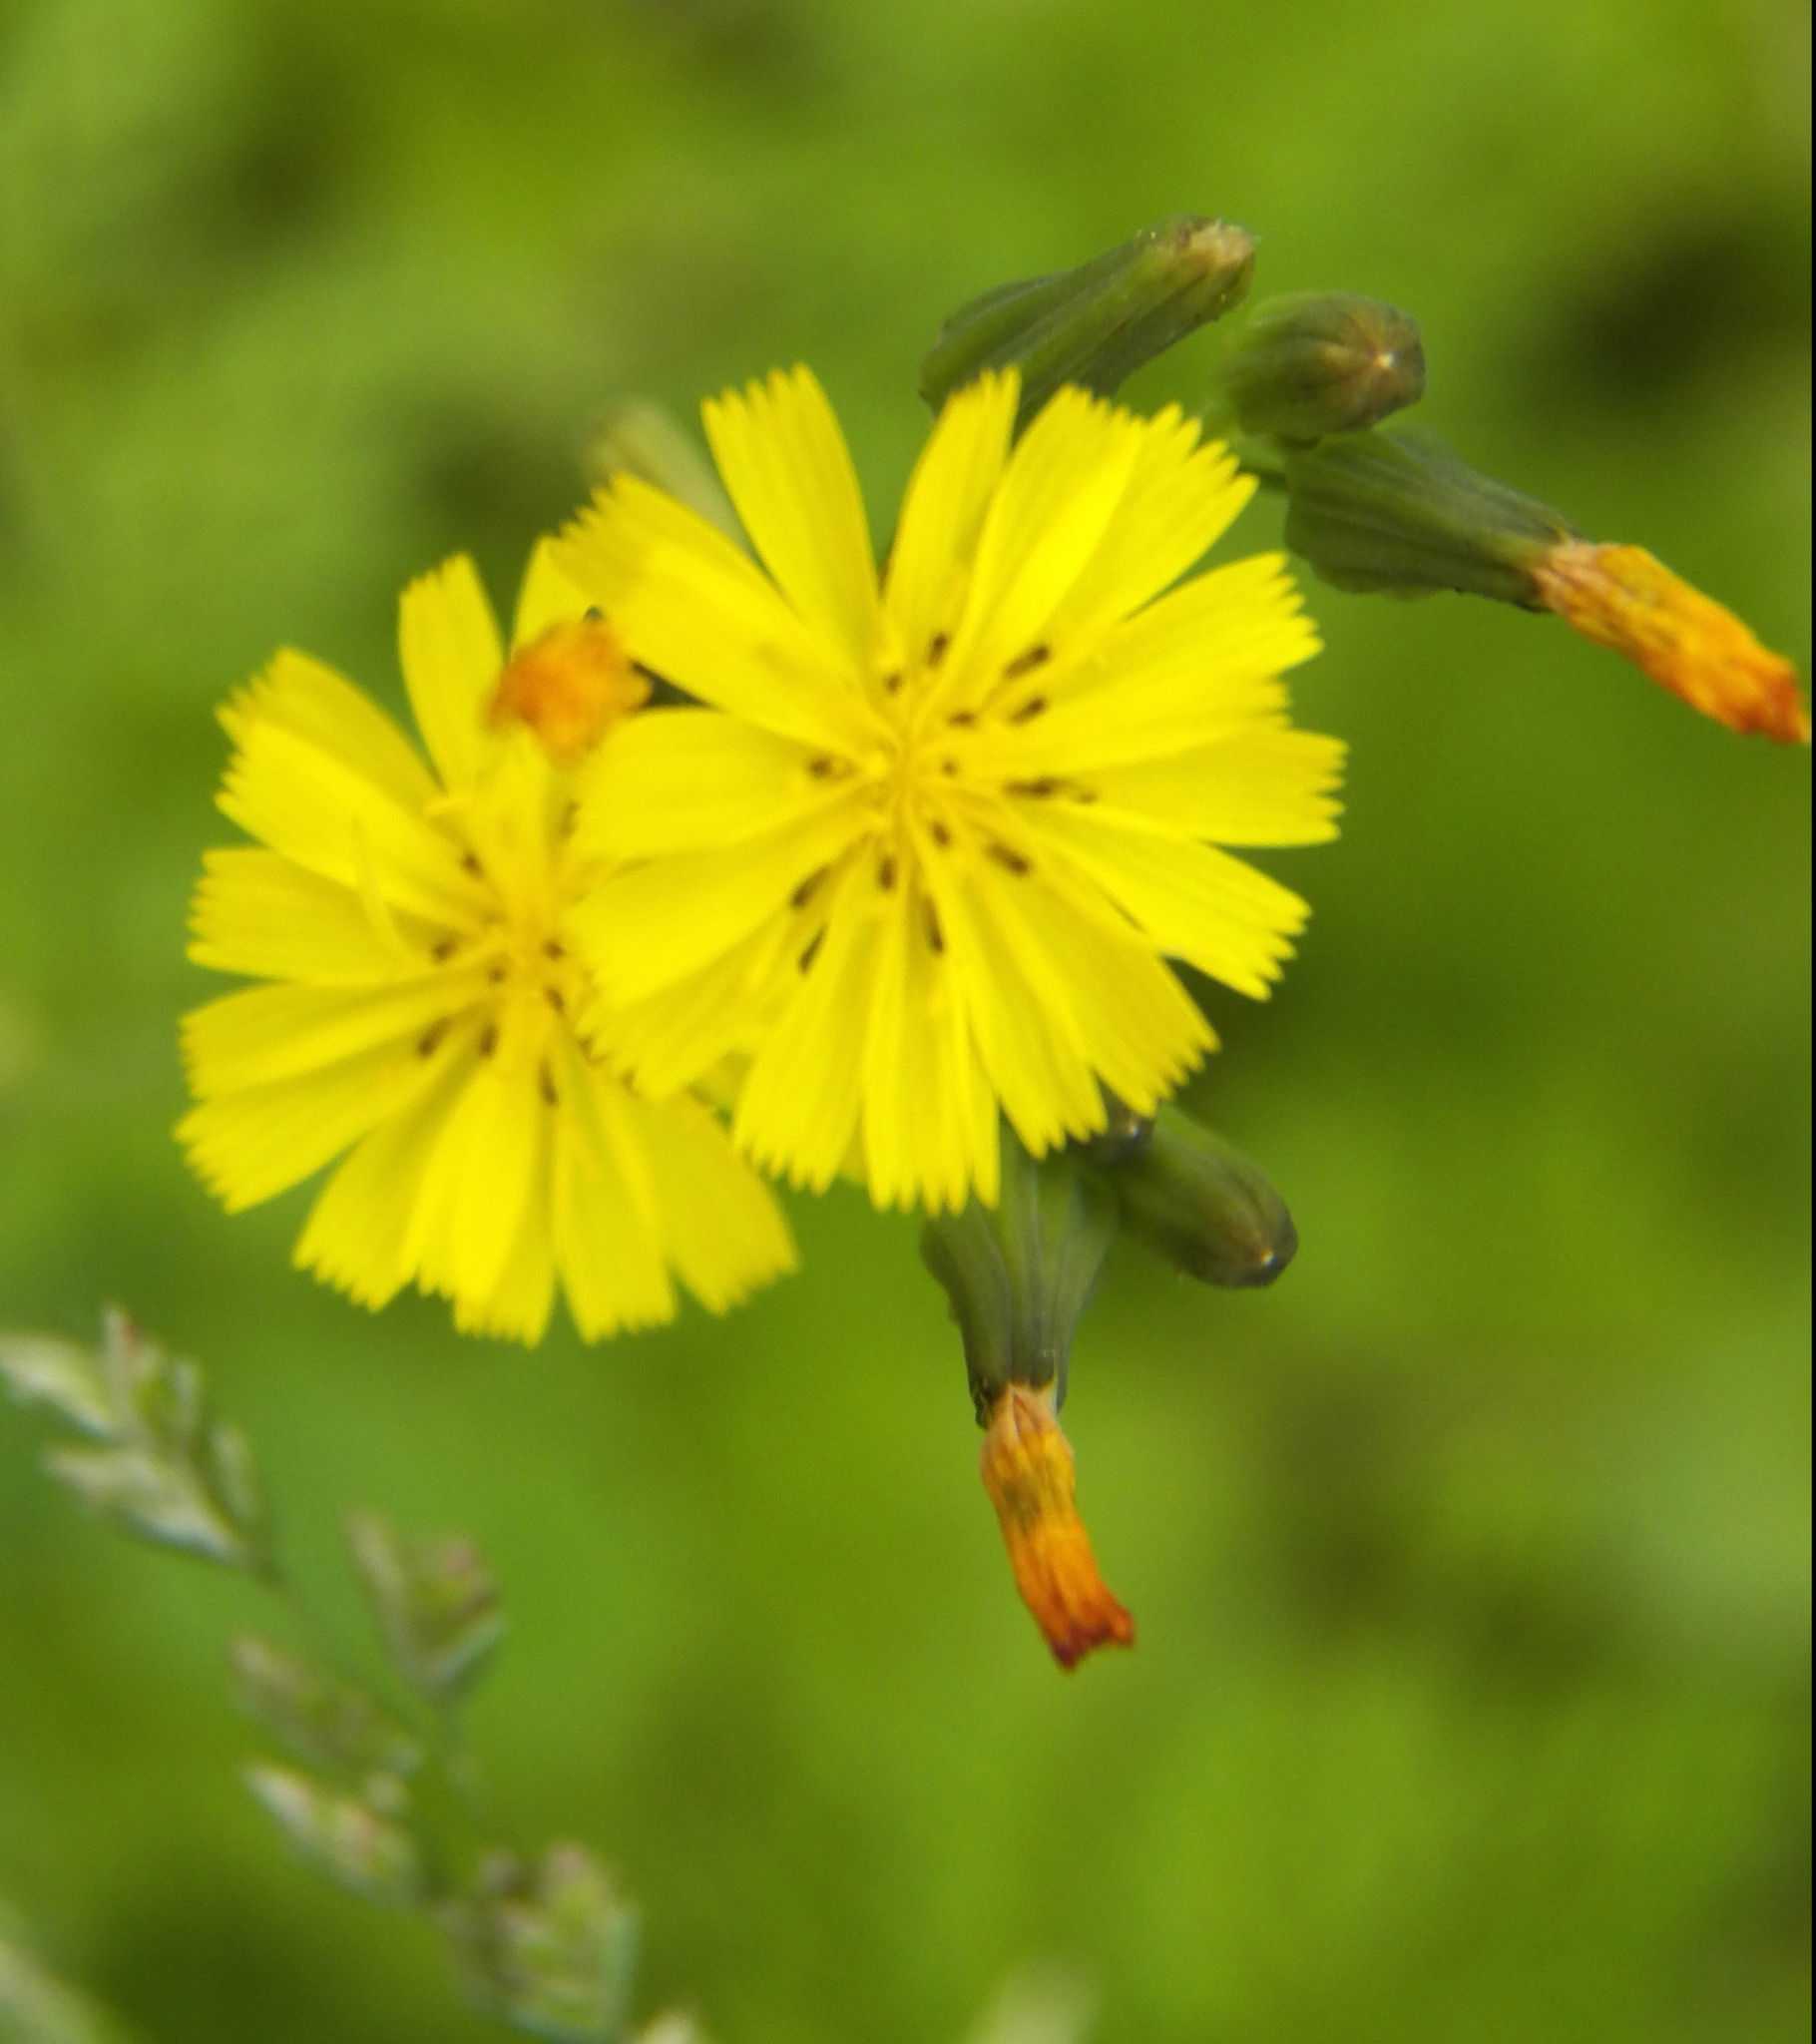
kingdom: Plantae
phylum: Tracheophyta
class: Magnoliopsida
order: Asterales
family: Asteraceae
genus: Youngia
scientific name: Youngia japonica
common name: Oriental false hawksbeard
